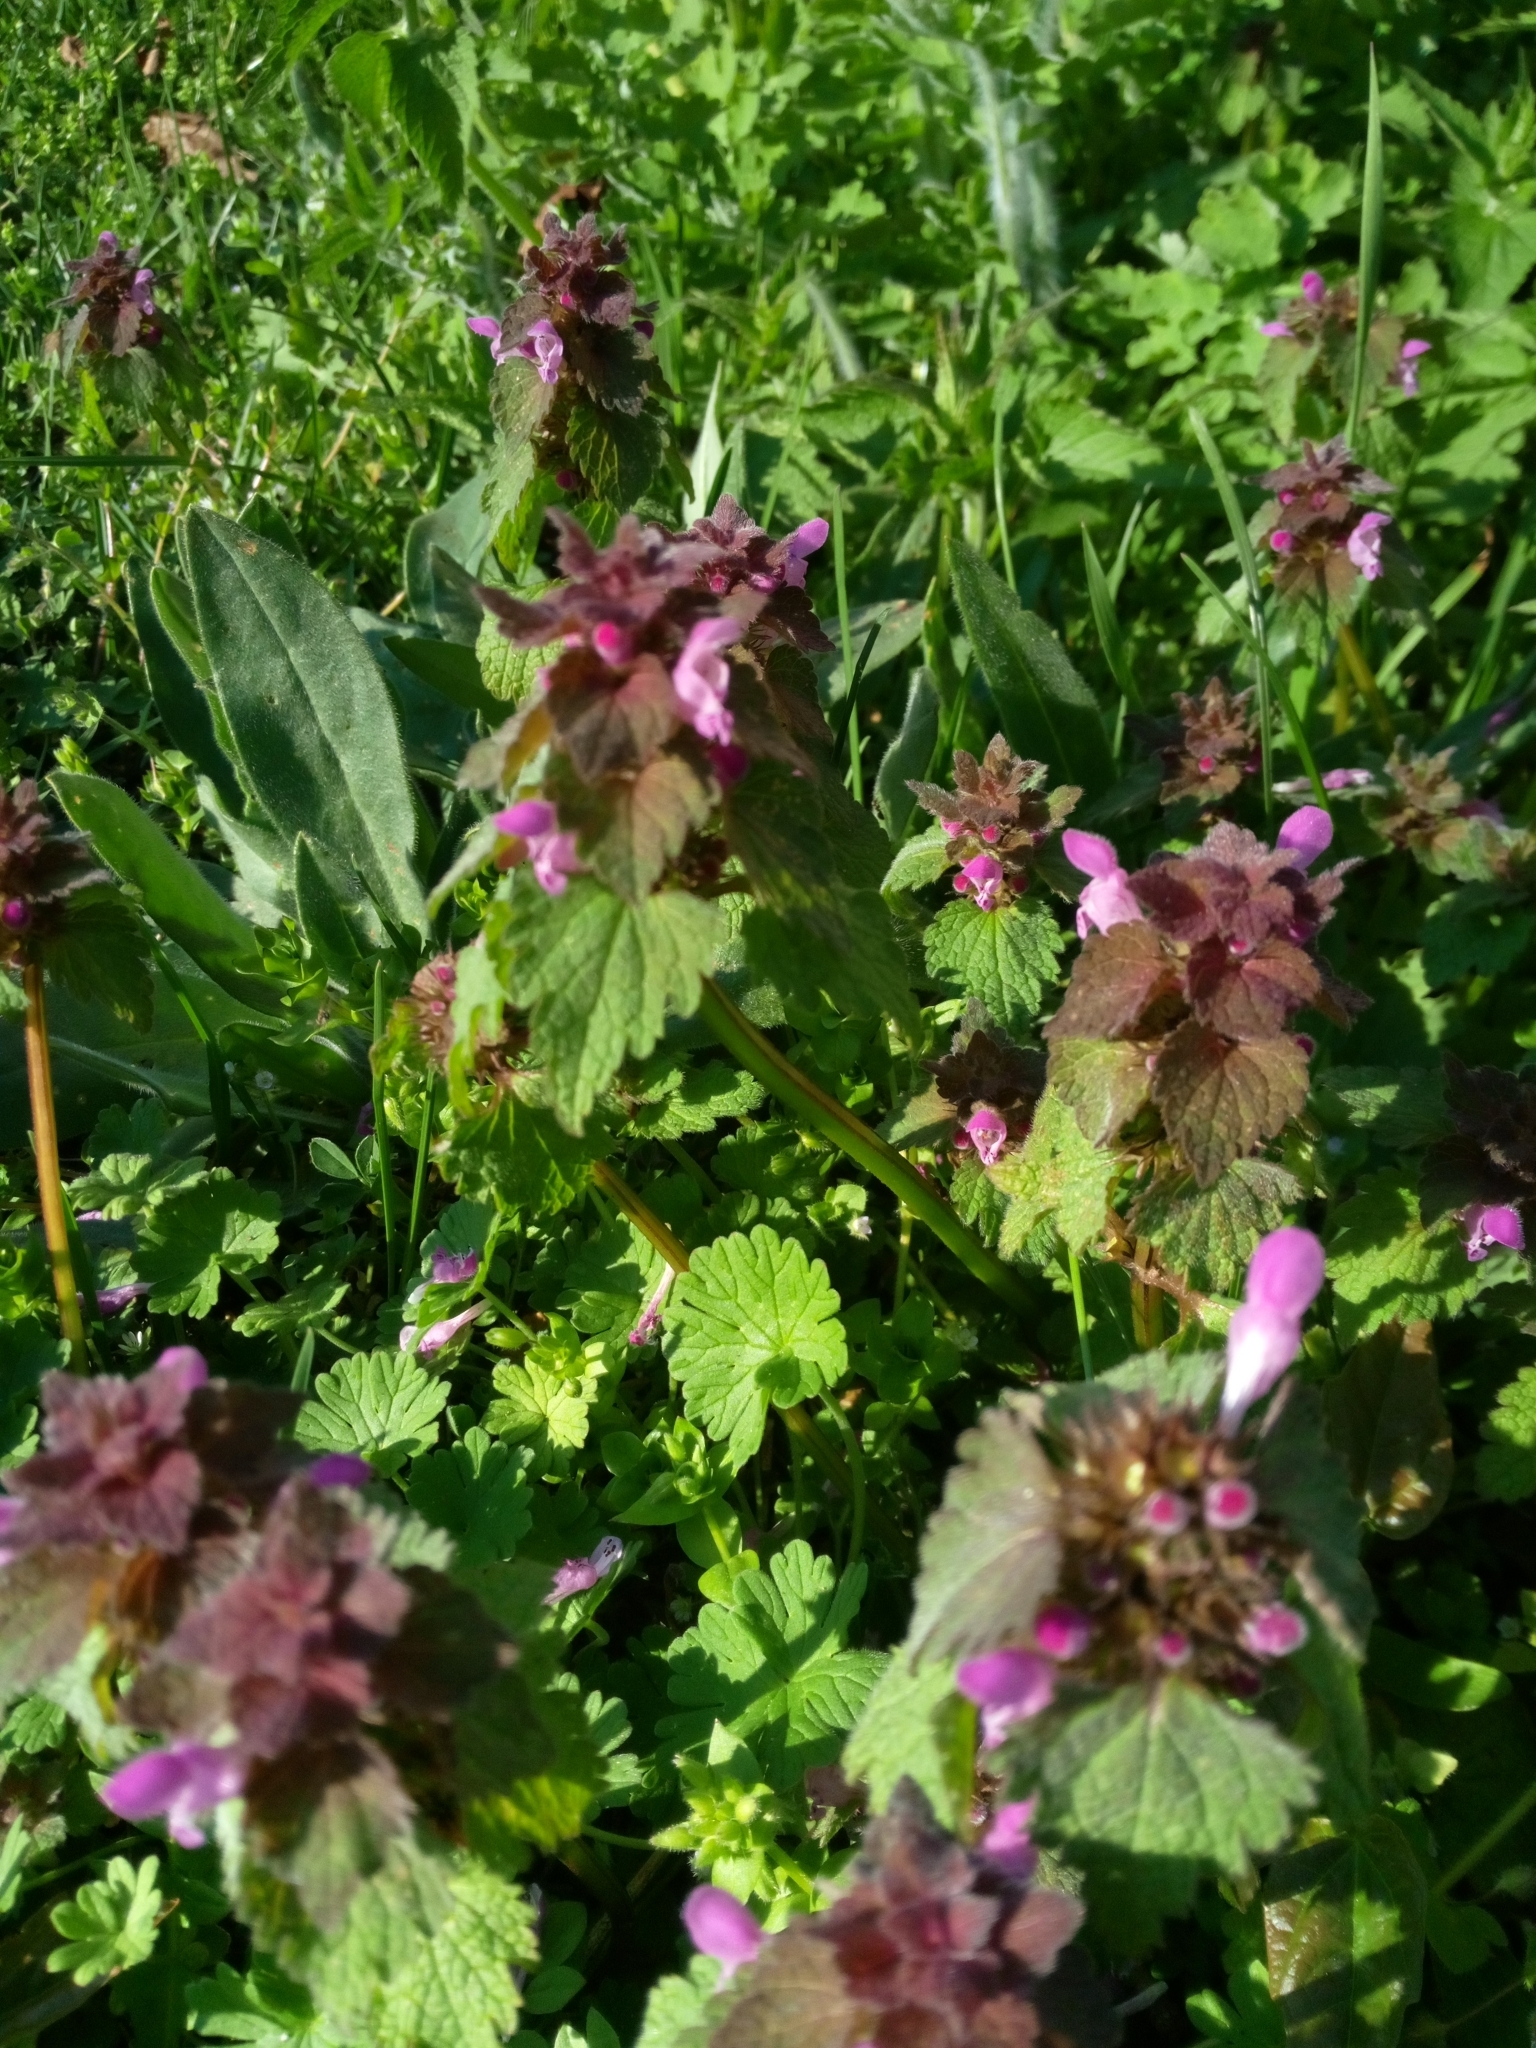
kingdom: Plantae
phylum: Tracheophyta
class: Magnoliopsida
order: Lamiales
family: Lamiaceae
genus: Lamium
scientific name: Lamium purpureum
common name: Red dead-nettle
